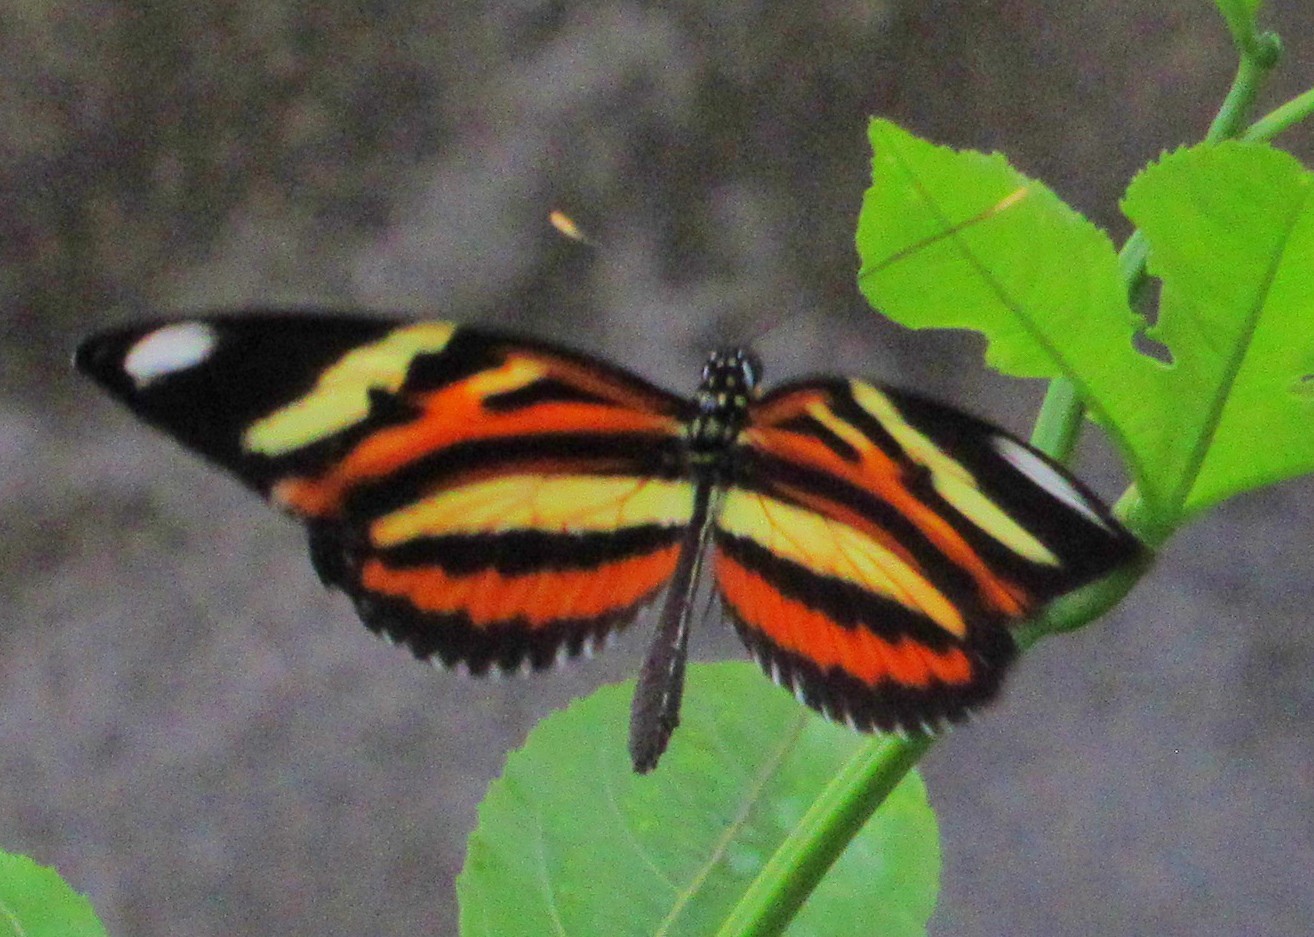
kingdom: Animalia
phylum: Arthropoda
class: Insecta
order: Lepidoptera
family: Nymphalidae
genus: Heliconius
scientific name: Heliconius ethilla
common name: Ethilia longwing
